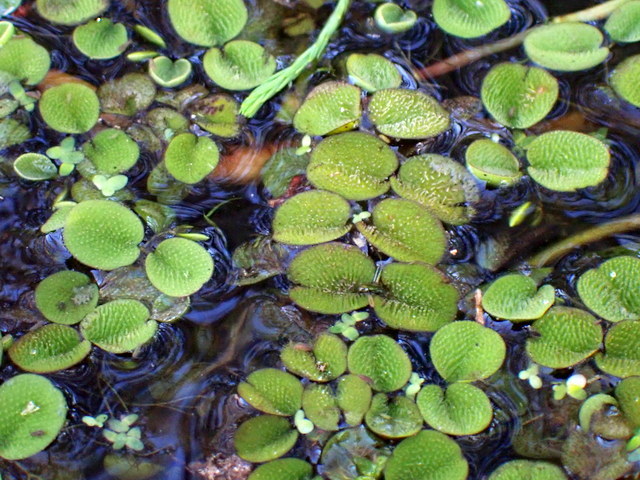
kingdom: Plantae
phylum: Tracheophyta
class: Polypodiopsida
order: Salviniales
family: Salviniaceae
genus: Salvinia
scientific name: Salvinia minima
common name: Water spangles
